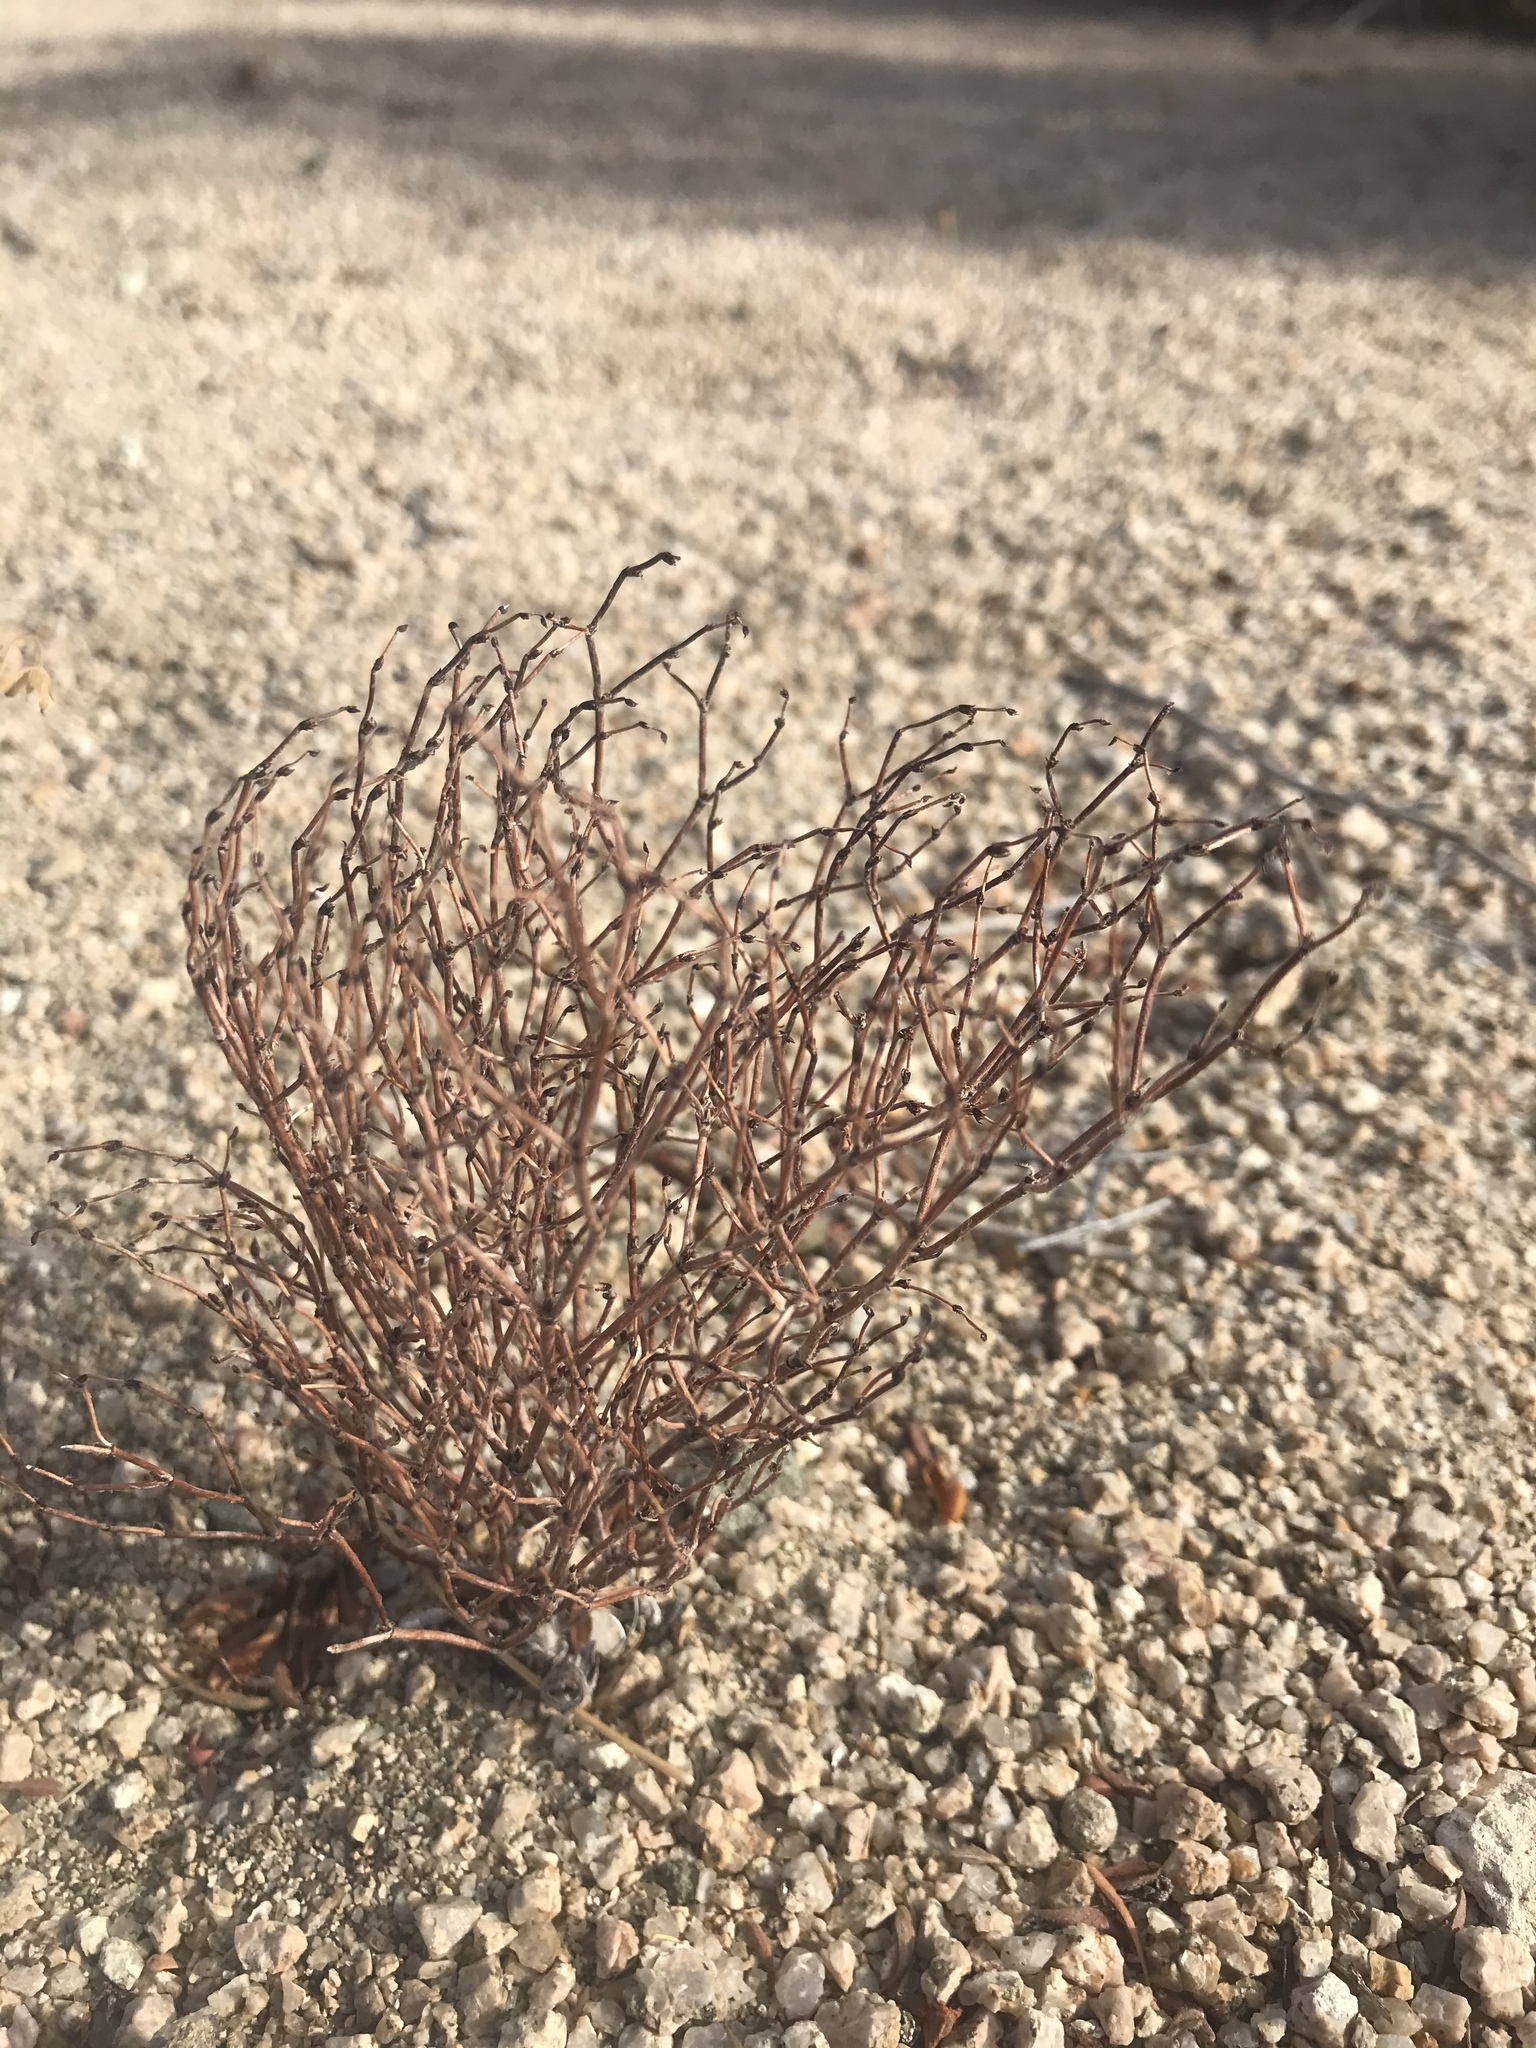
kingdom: Plantae
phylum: Tracheophyta
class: Magnoliopsida
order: Caryophyllales
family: Polygonaceae
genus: Eriogonum
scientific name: Eriogonum nidularium
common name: Bird's-nest wild buckwheat
